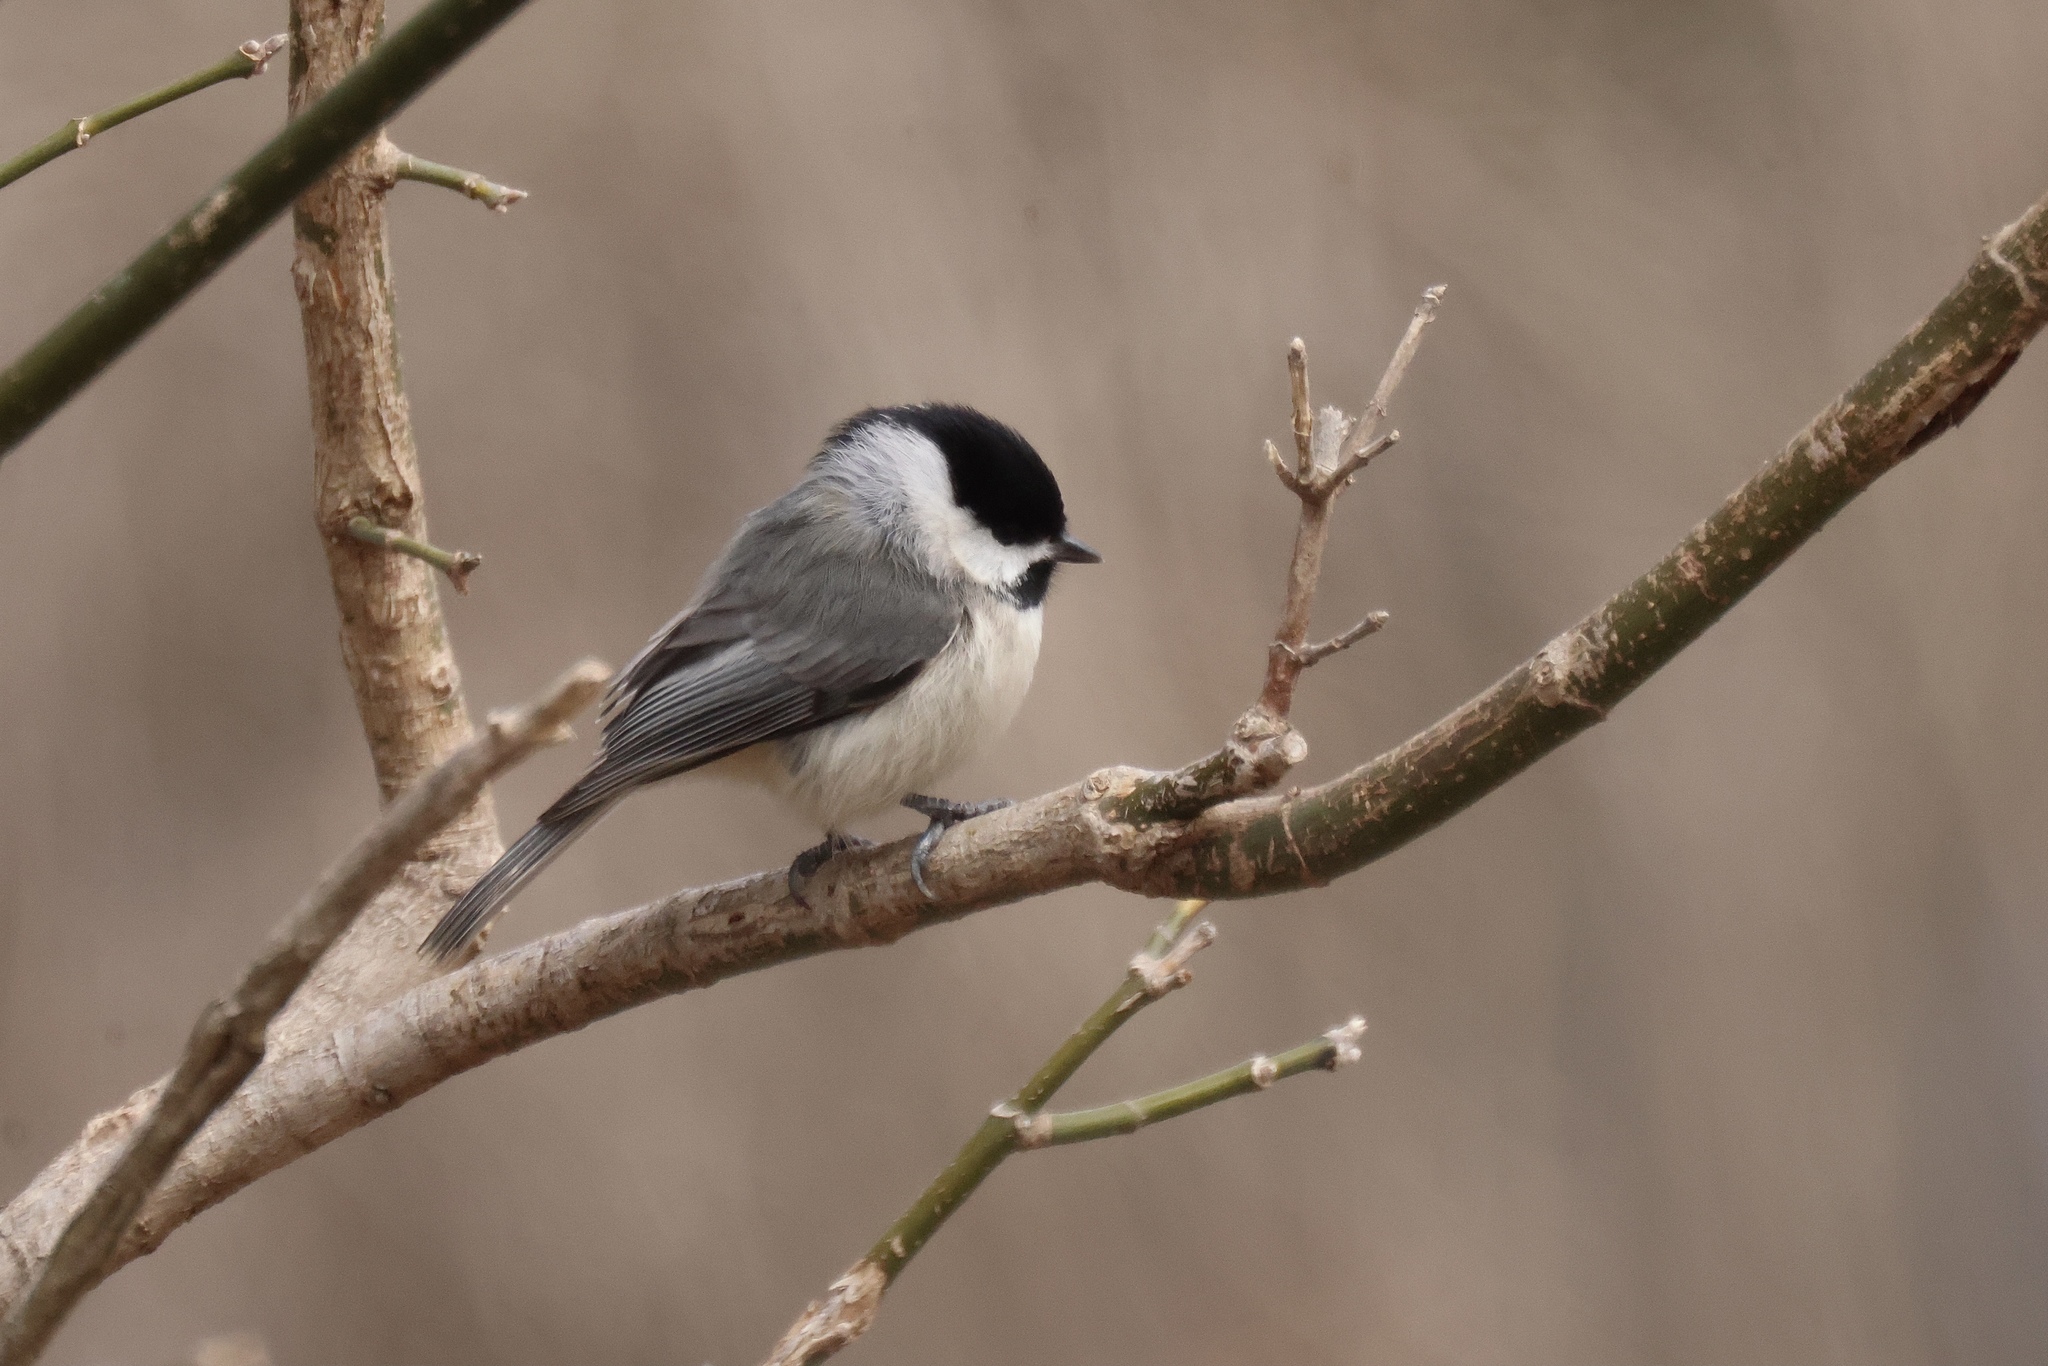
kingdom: Animalia
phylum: Chordata
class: Aves
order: Passeriformes
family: Paridae
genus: Poecile
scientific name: Poecile carolinensis
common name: Carolina chickadee
